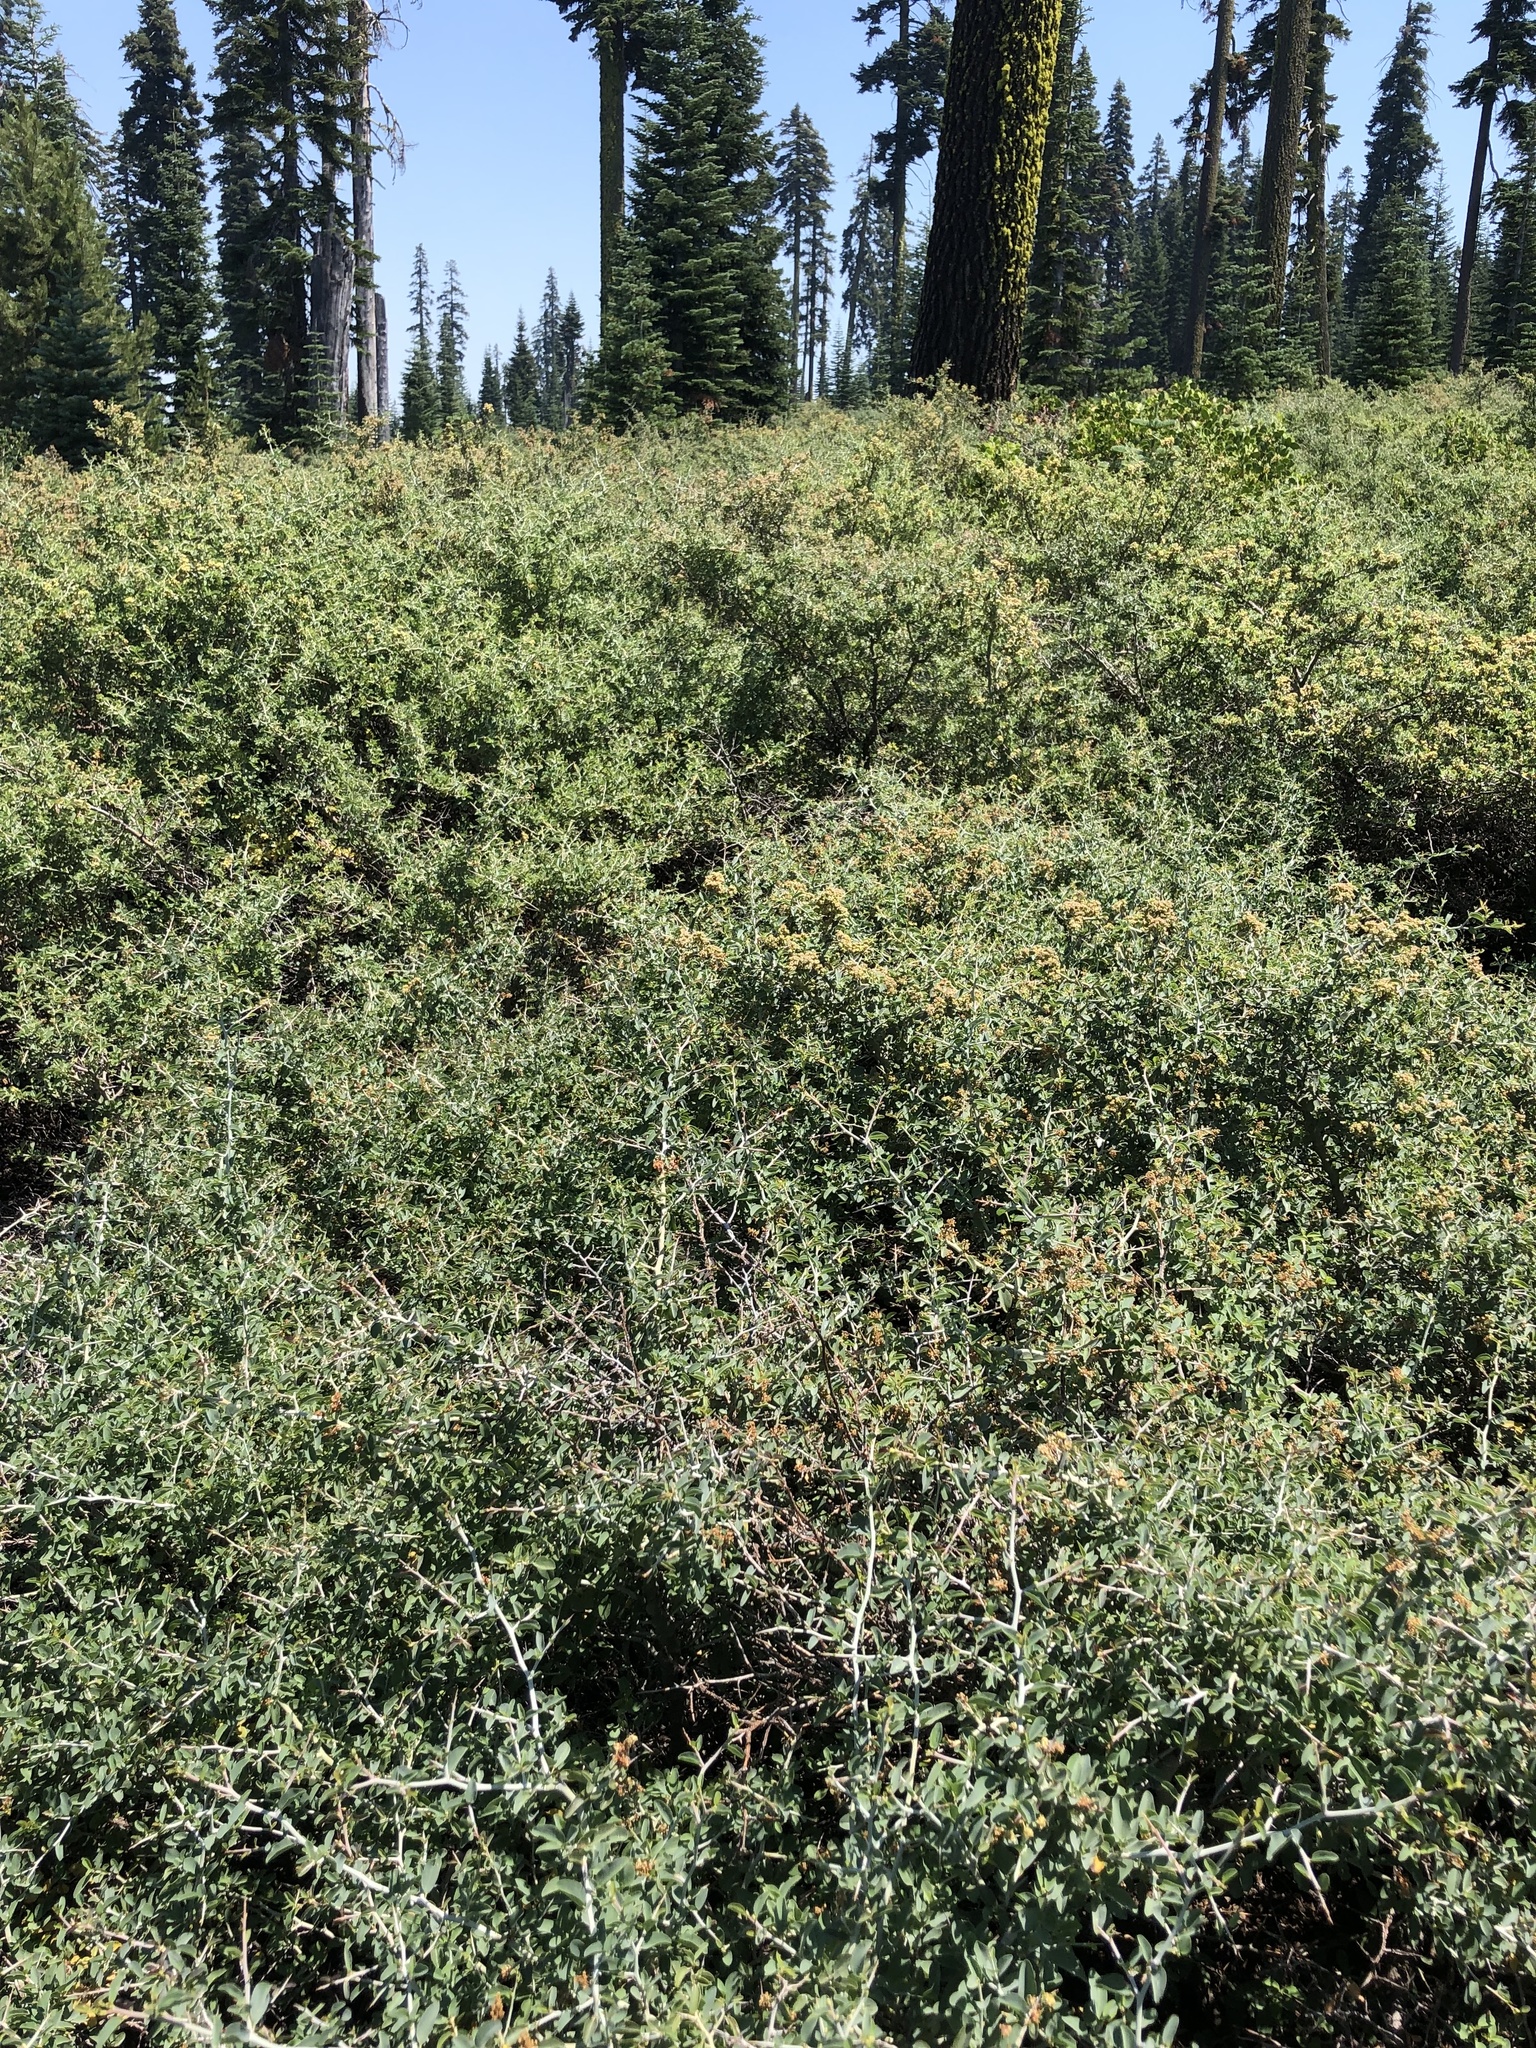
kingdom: Plantae
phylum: Tracheophyta
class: Magnoliopsida
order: Rosales
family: Rhamnaceae
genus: Ceanothus
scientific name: Ceanothus cordulatus
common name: Mountain whitethorn
